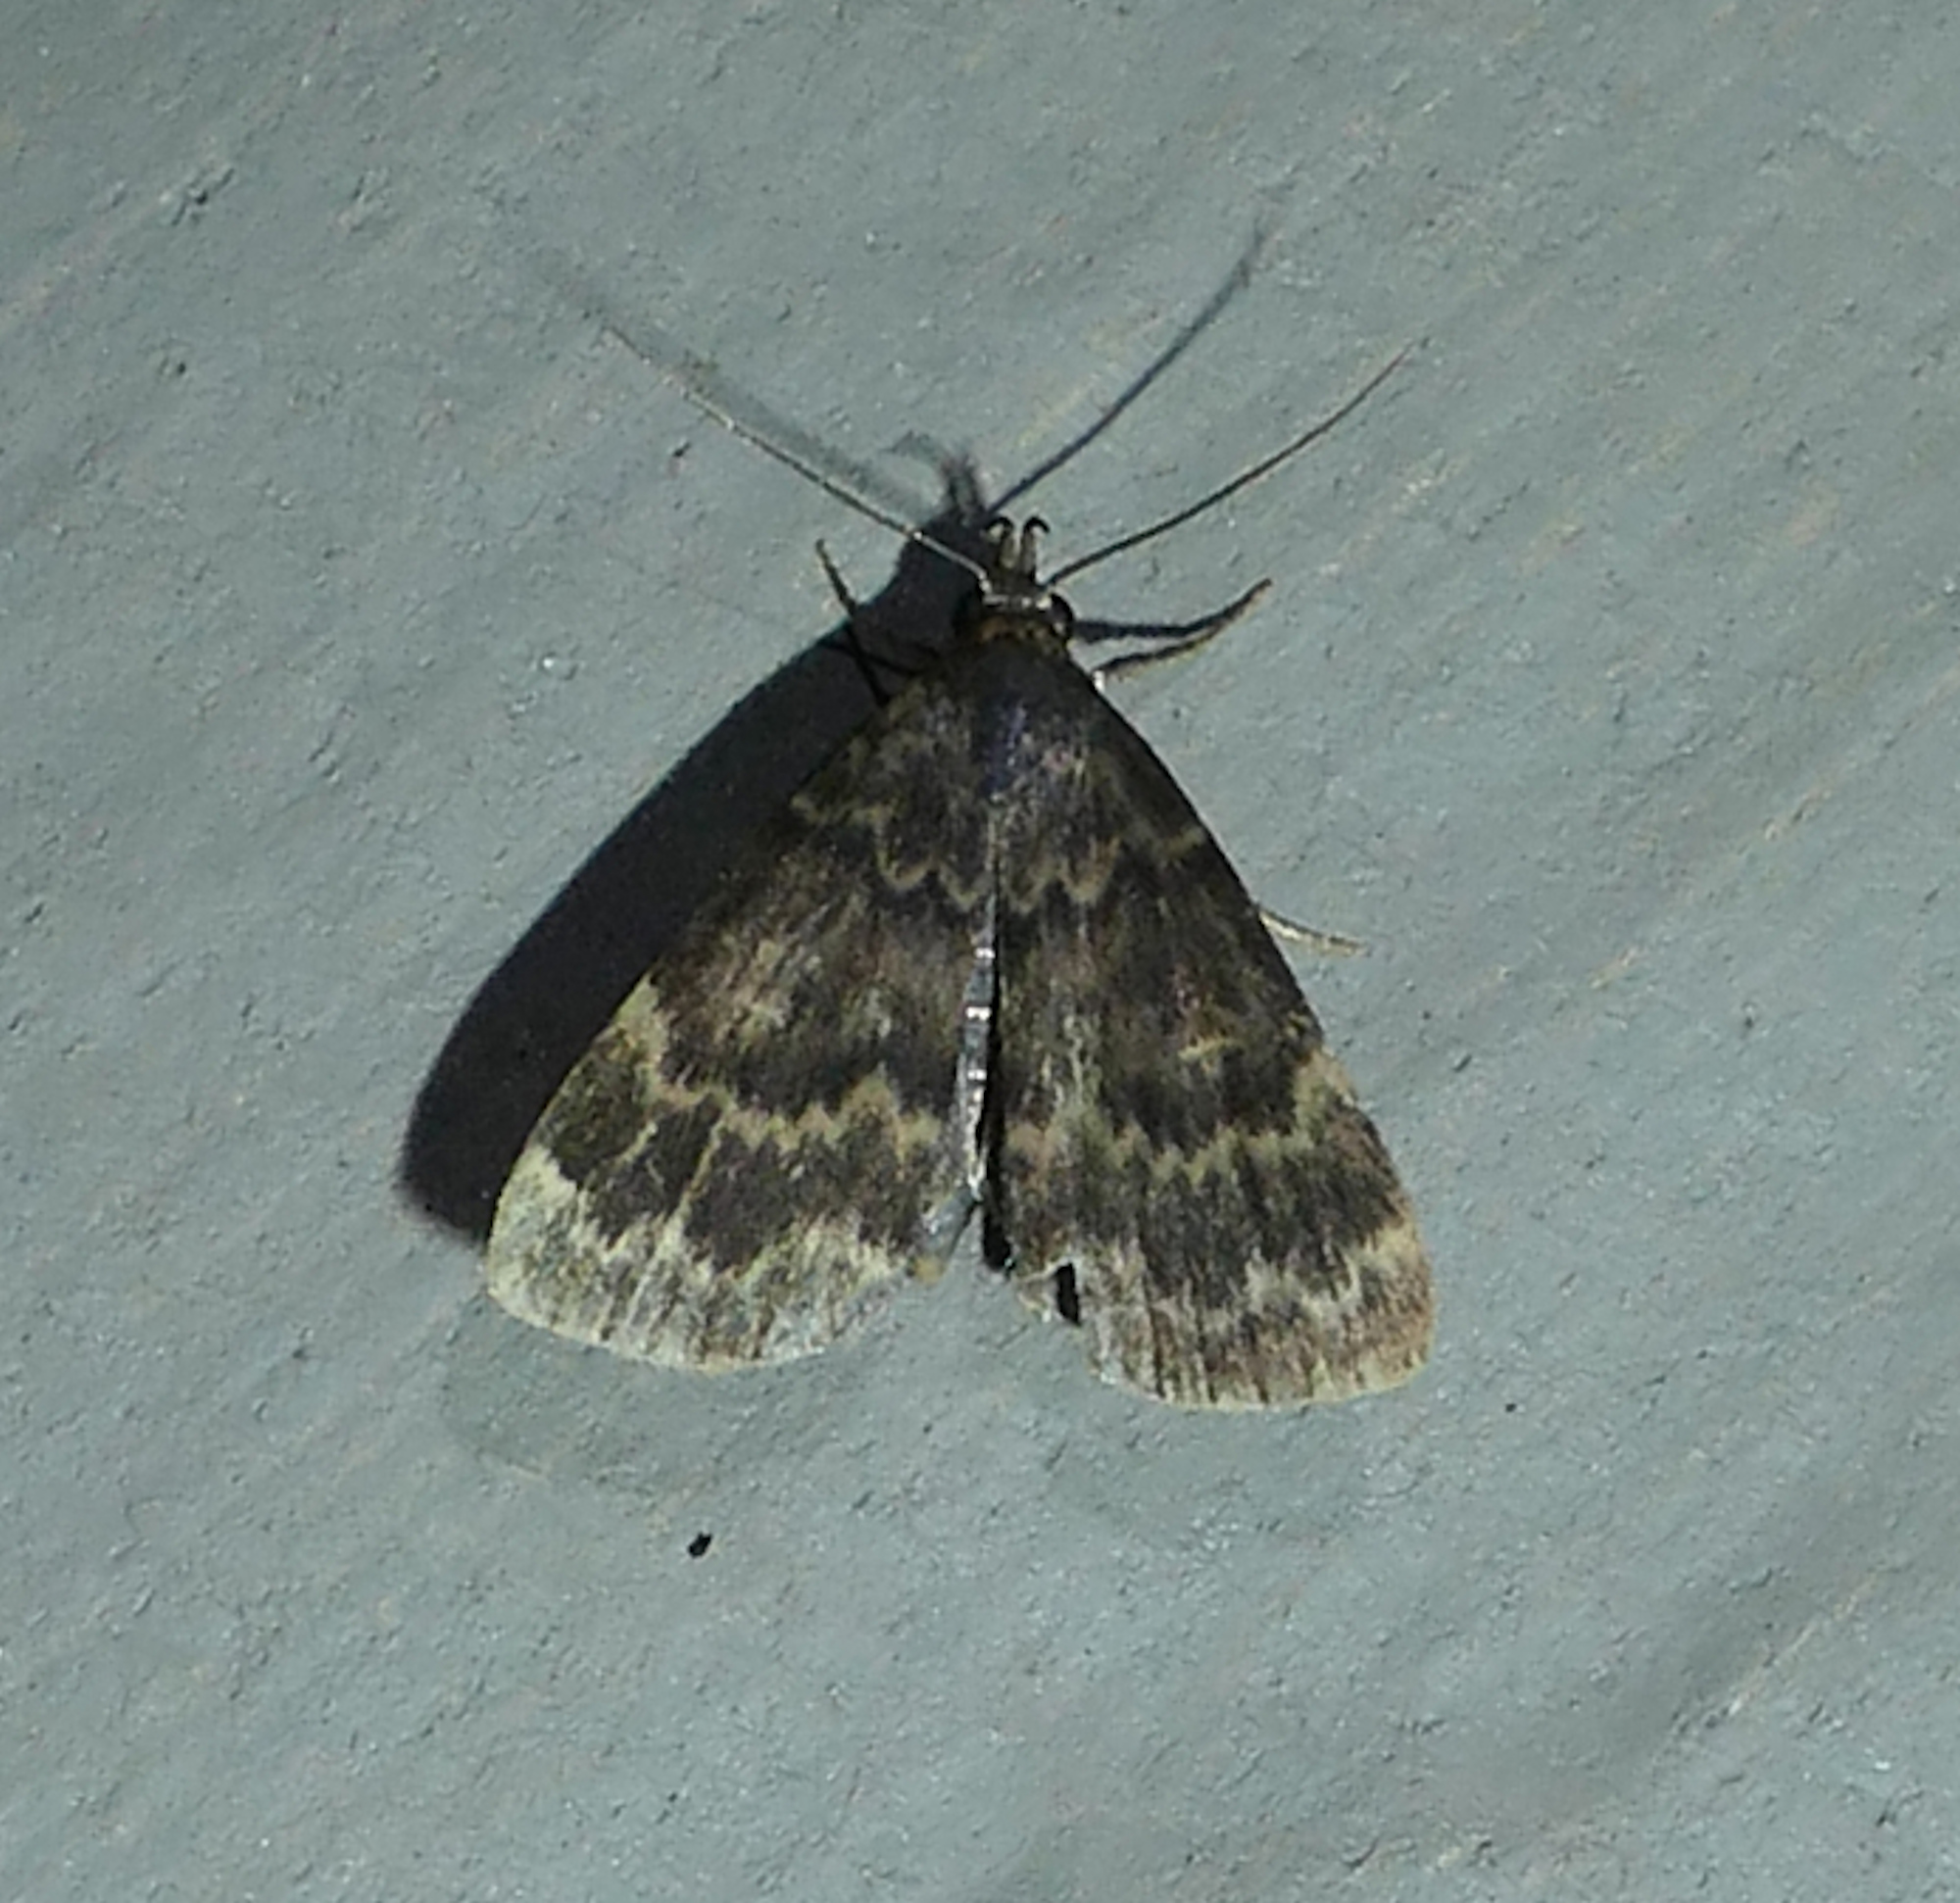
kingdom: Animalia
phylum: Arthropoda
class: Insecta
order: Lepidoptera
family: Erebidae
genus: Idia
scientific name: Idia lubricalis
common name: Twin-striped tabby
